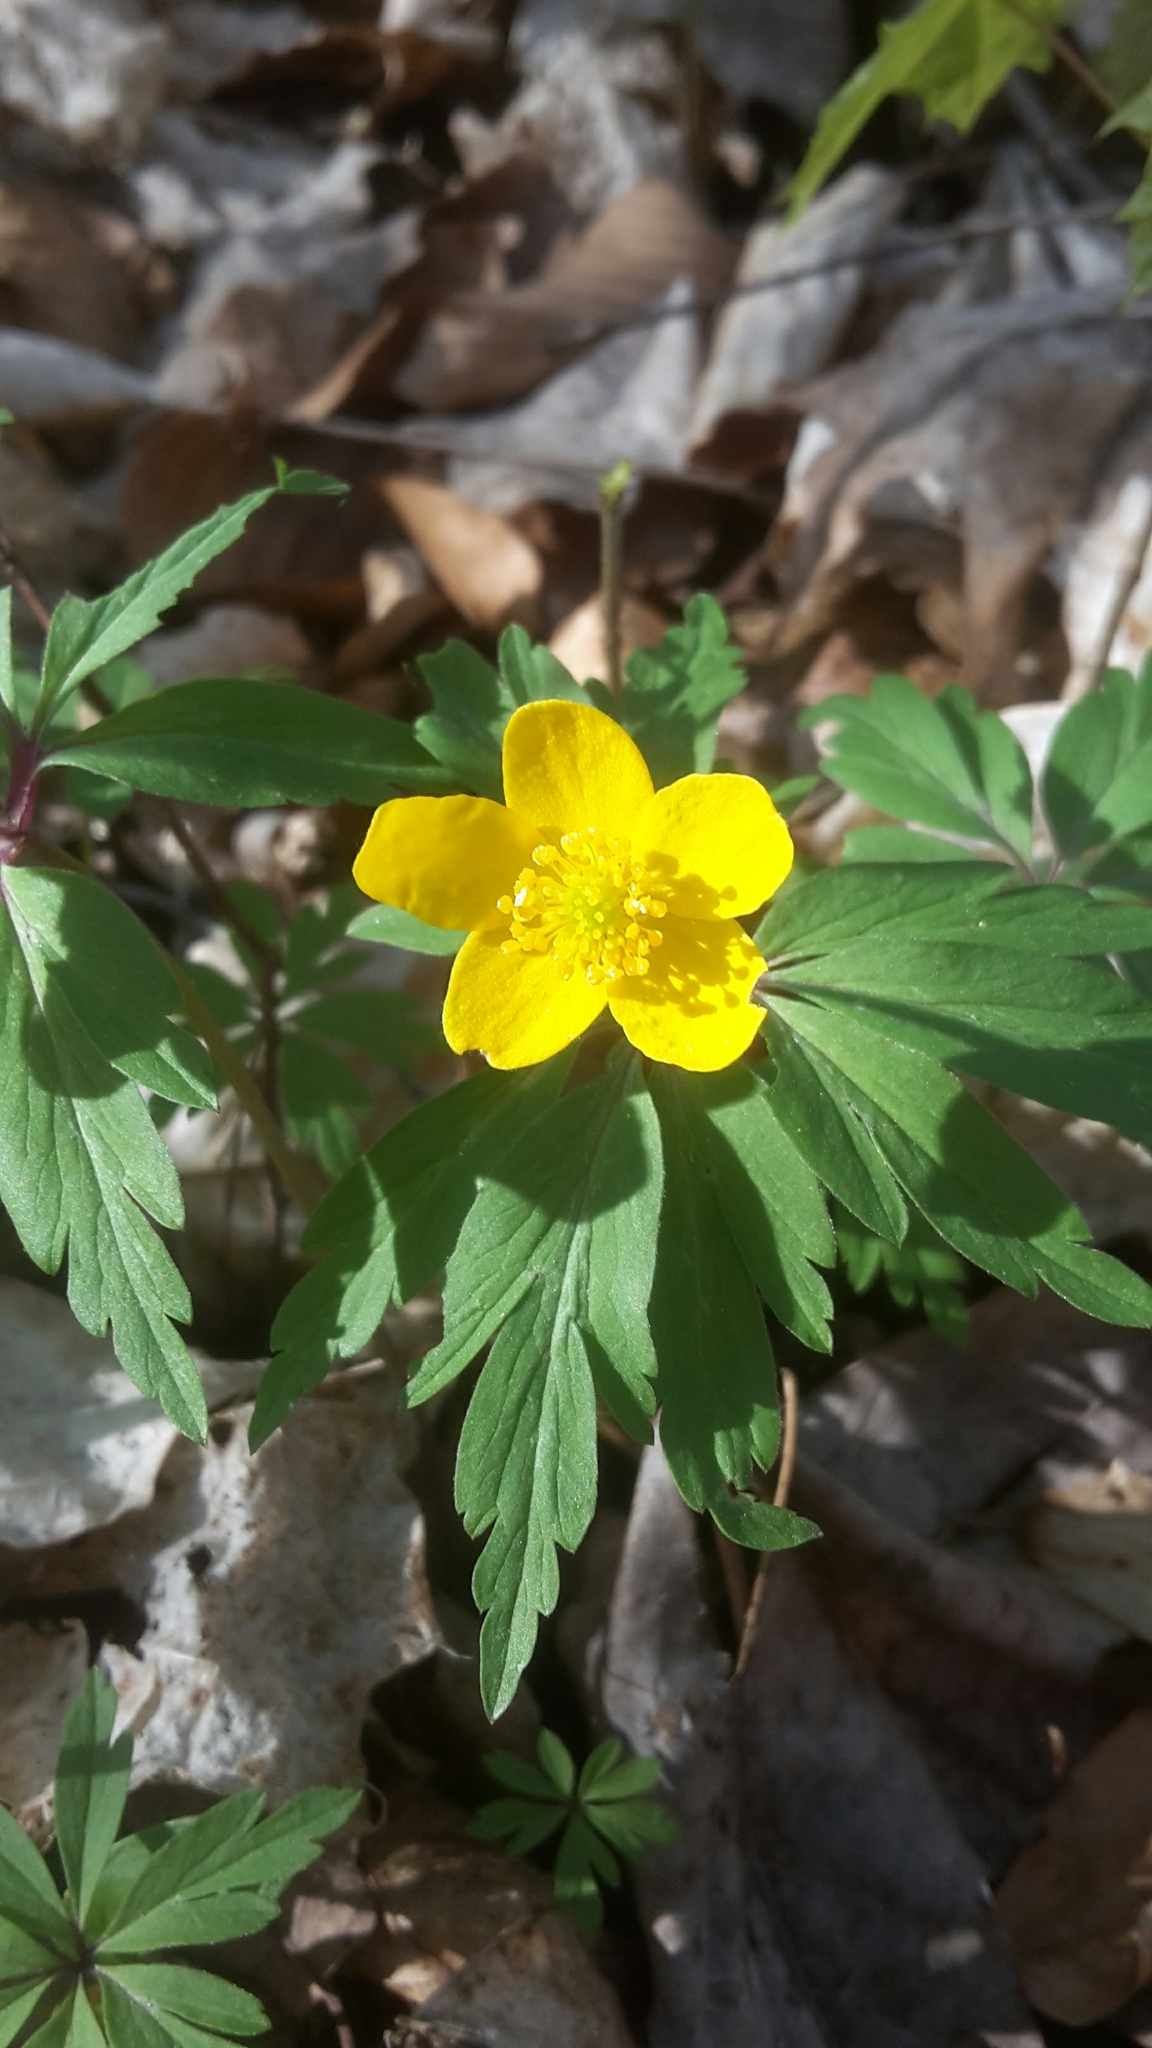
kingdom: Plantae
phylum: Tracheophyta
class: Magnoliopsida
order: Ranunculales
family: Ranunculaceae
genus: Anemone
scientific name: Anemone ranunculoides
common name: Yellow anemone
